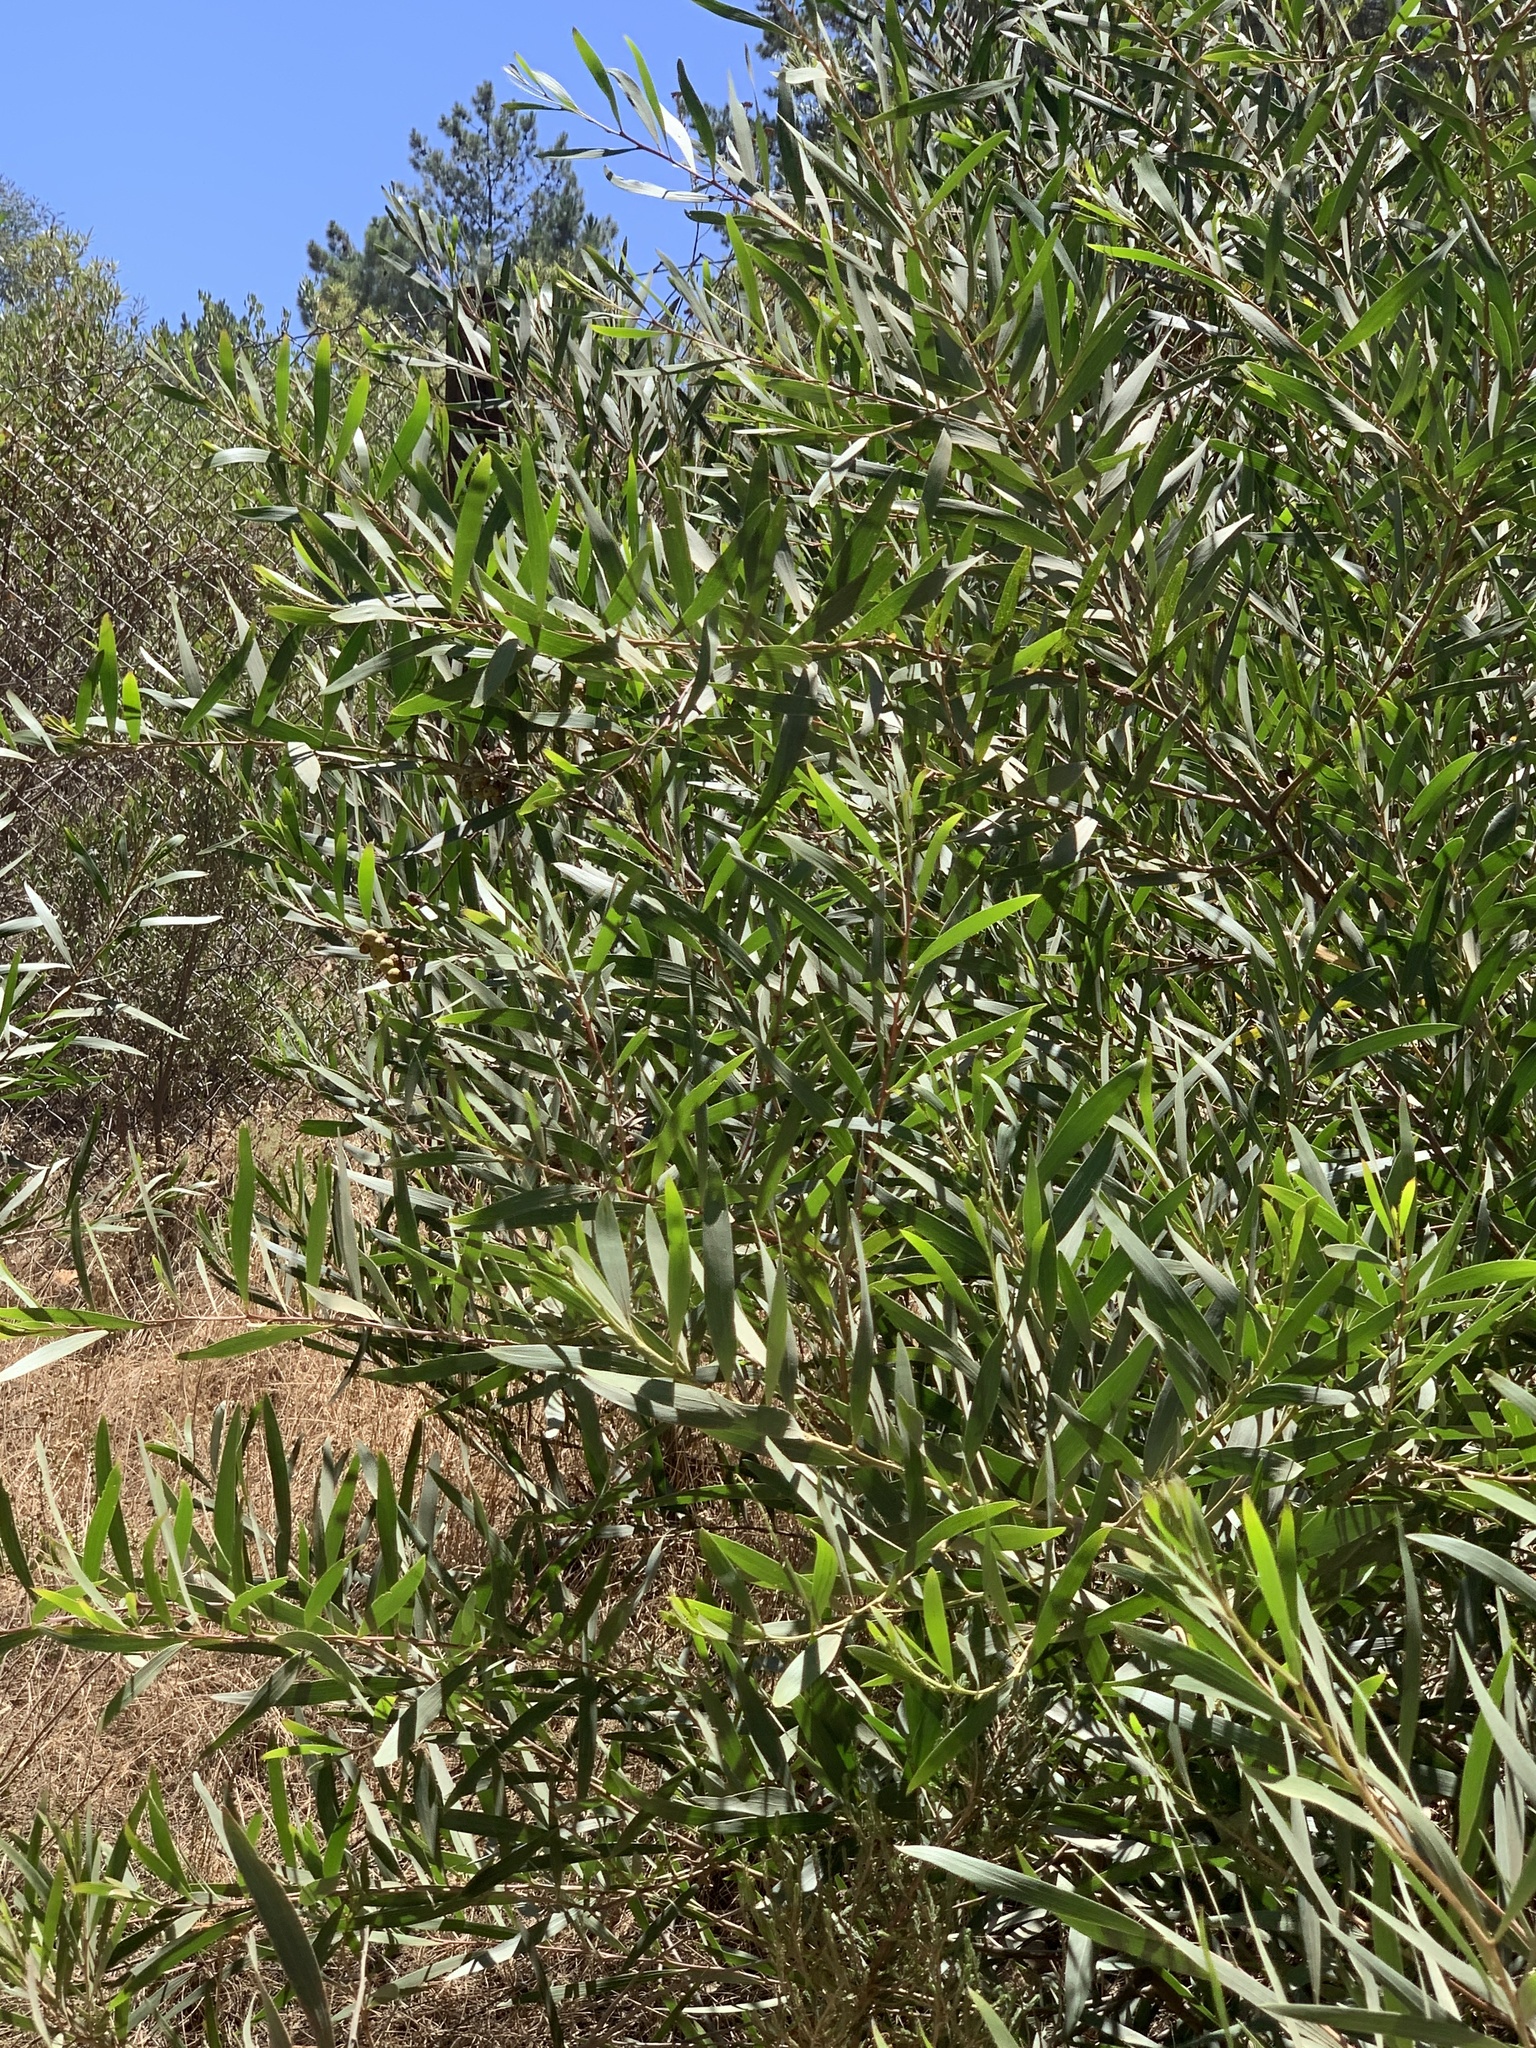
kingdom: Plantae
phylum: Tracheophyta
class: Magnoliopsida
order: Fabales
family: Fabaceae
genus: Acacia
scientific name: Acacia longifolia
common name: Sydney golden wattle
